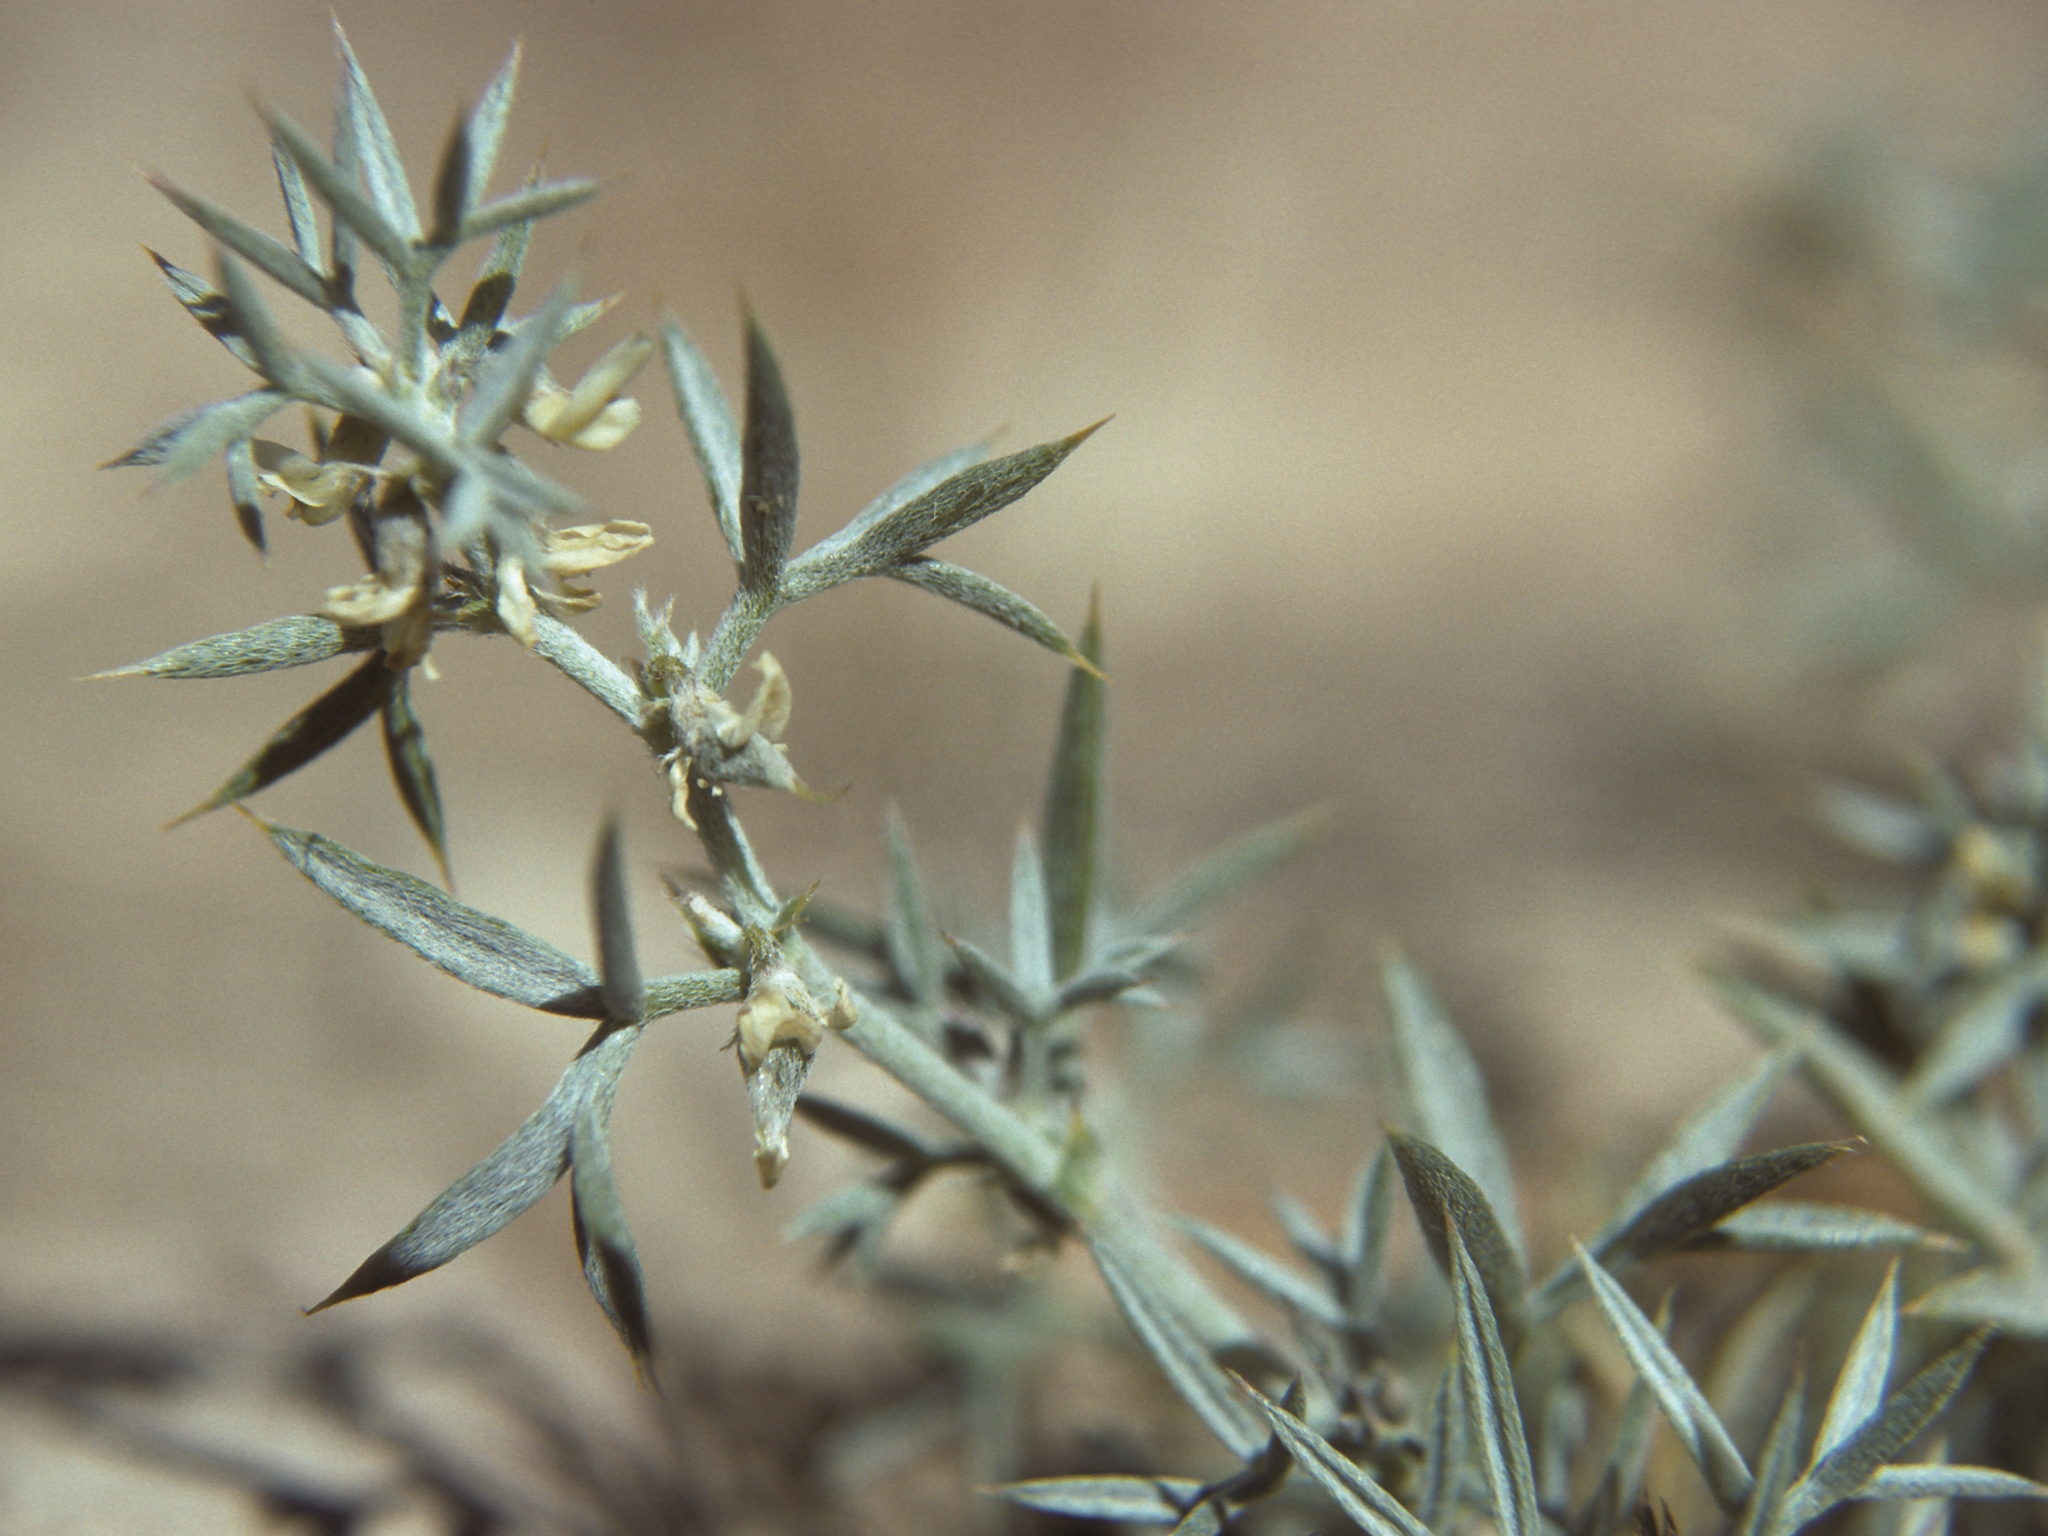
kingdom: Plantae
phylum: Tracheophyta
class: Magnoliopsida
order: Fabales
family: Fabaceae
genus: Astragalus
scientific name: Astragalus kentrophyta
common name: Prickly milk-vetch
